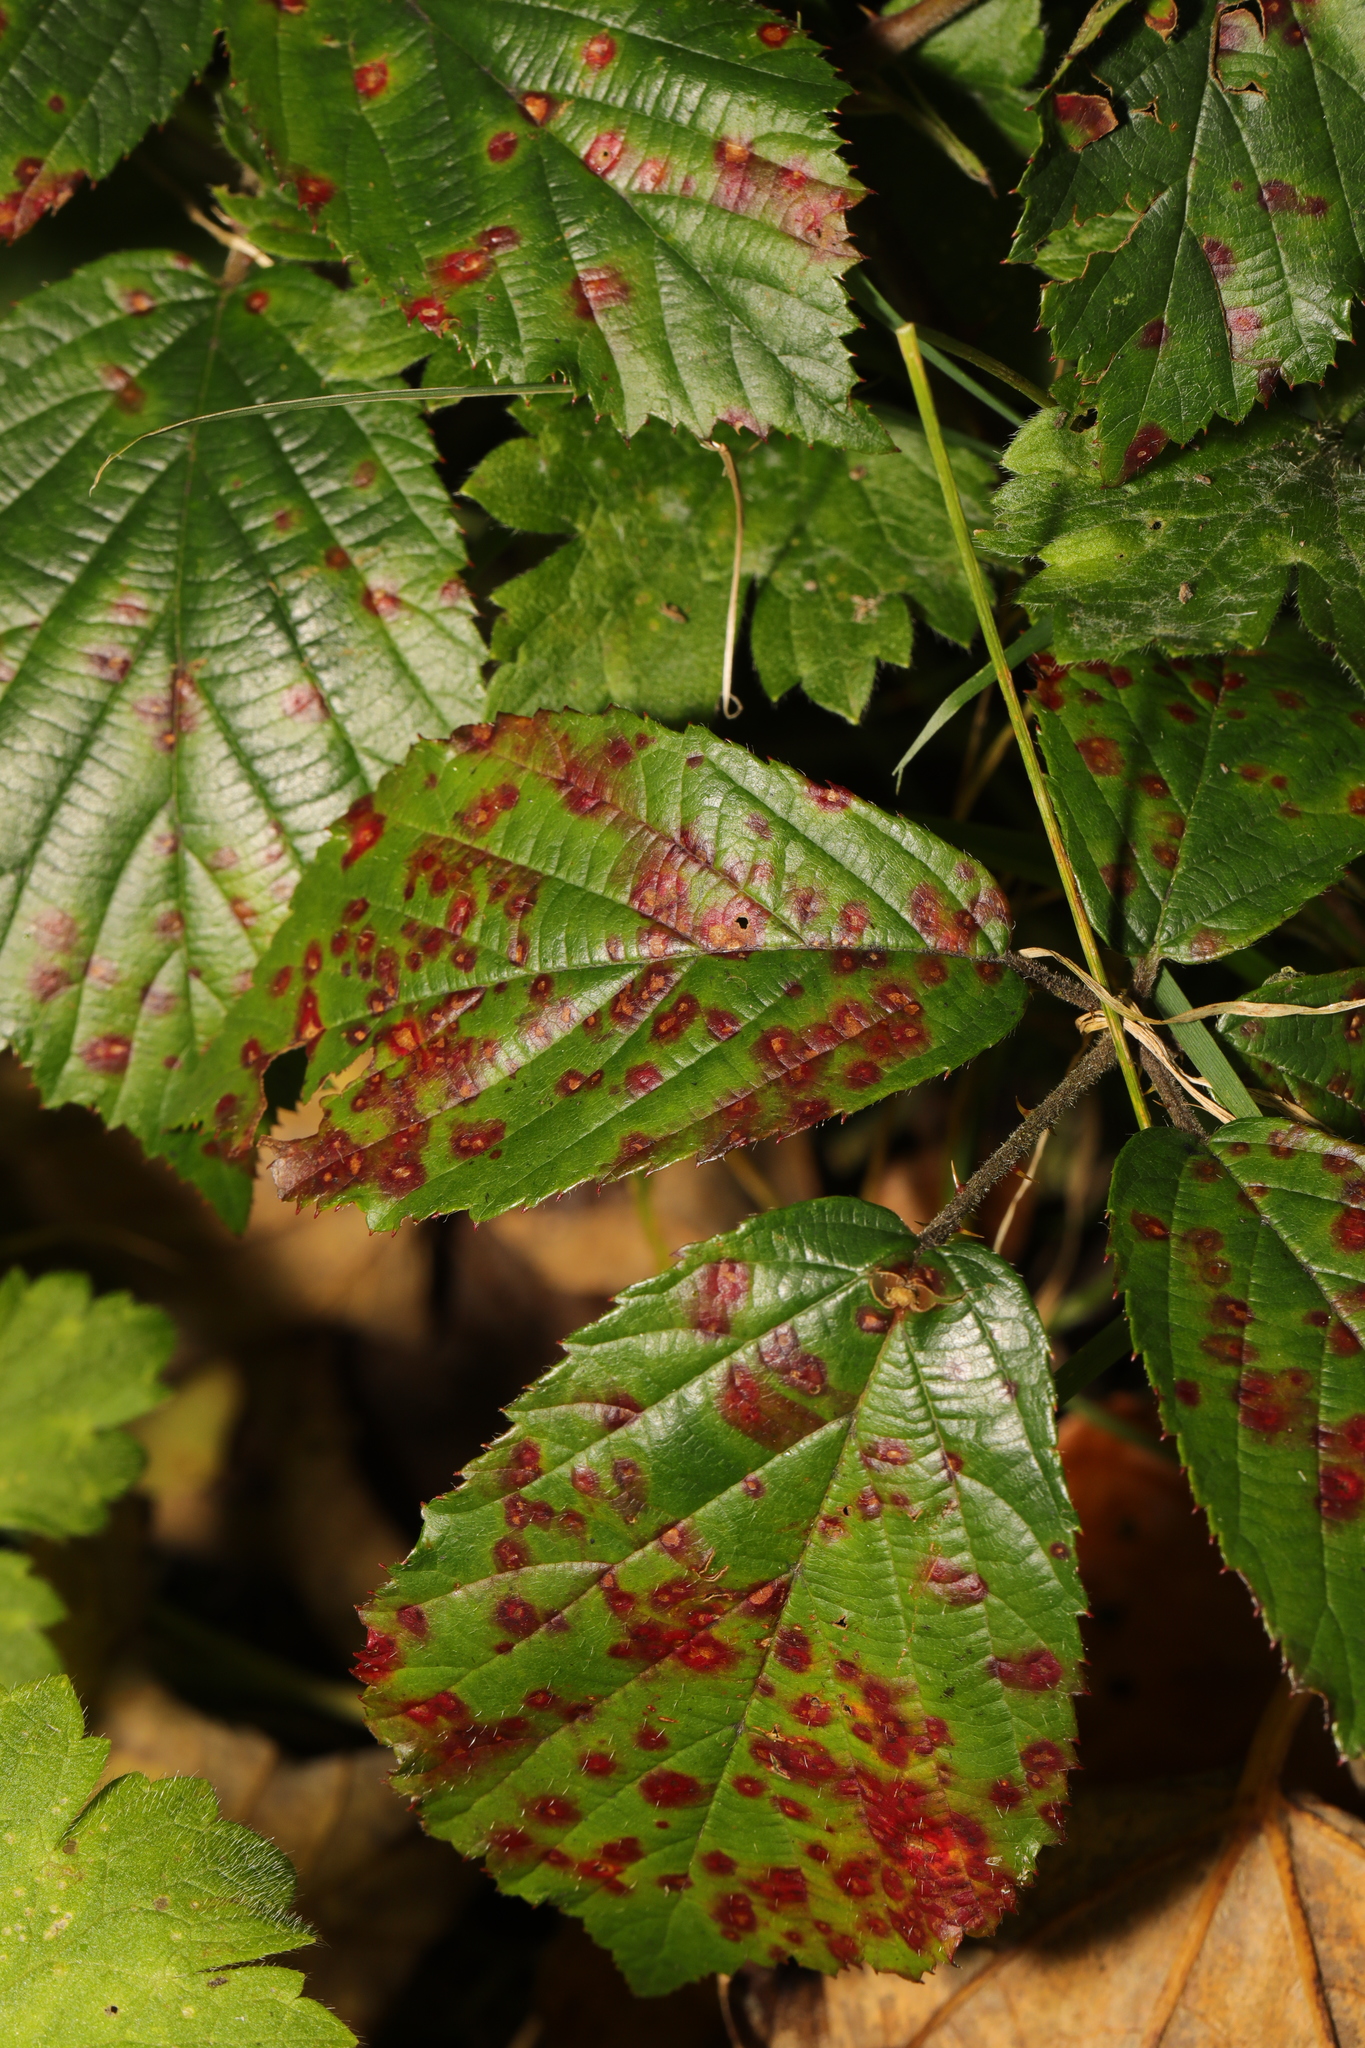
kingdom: Fungi
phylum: Basidiomycota
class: Pucciniomycetes
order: Pucciniales
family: Phragmidiaceae
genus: Phragmidium
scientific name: Phragmidium violaceum
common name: Violet bramble rust
